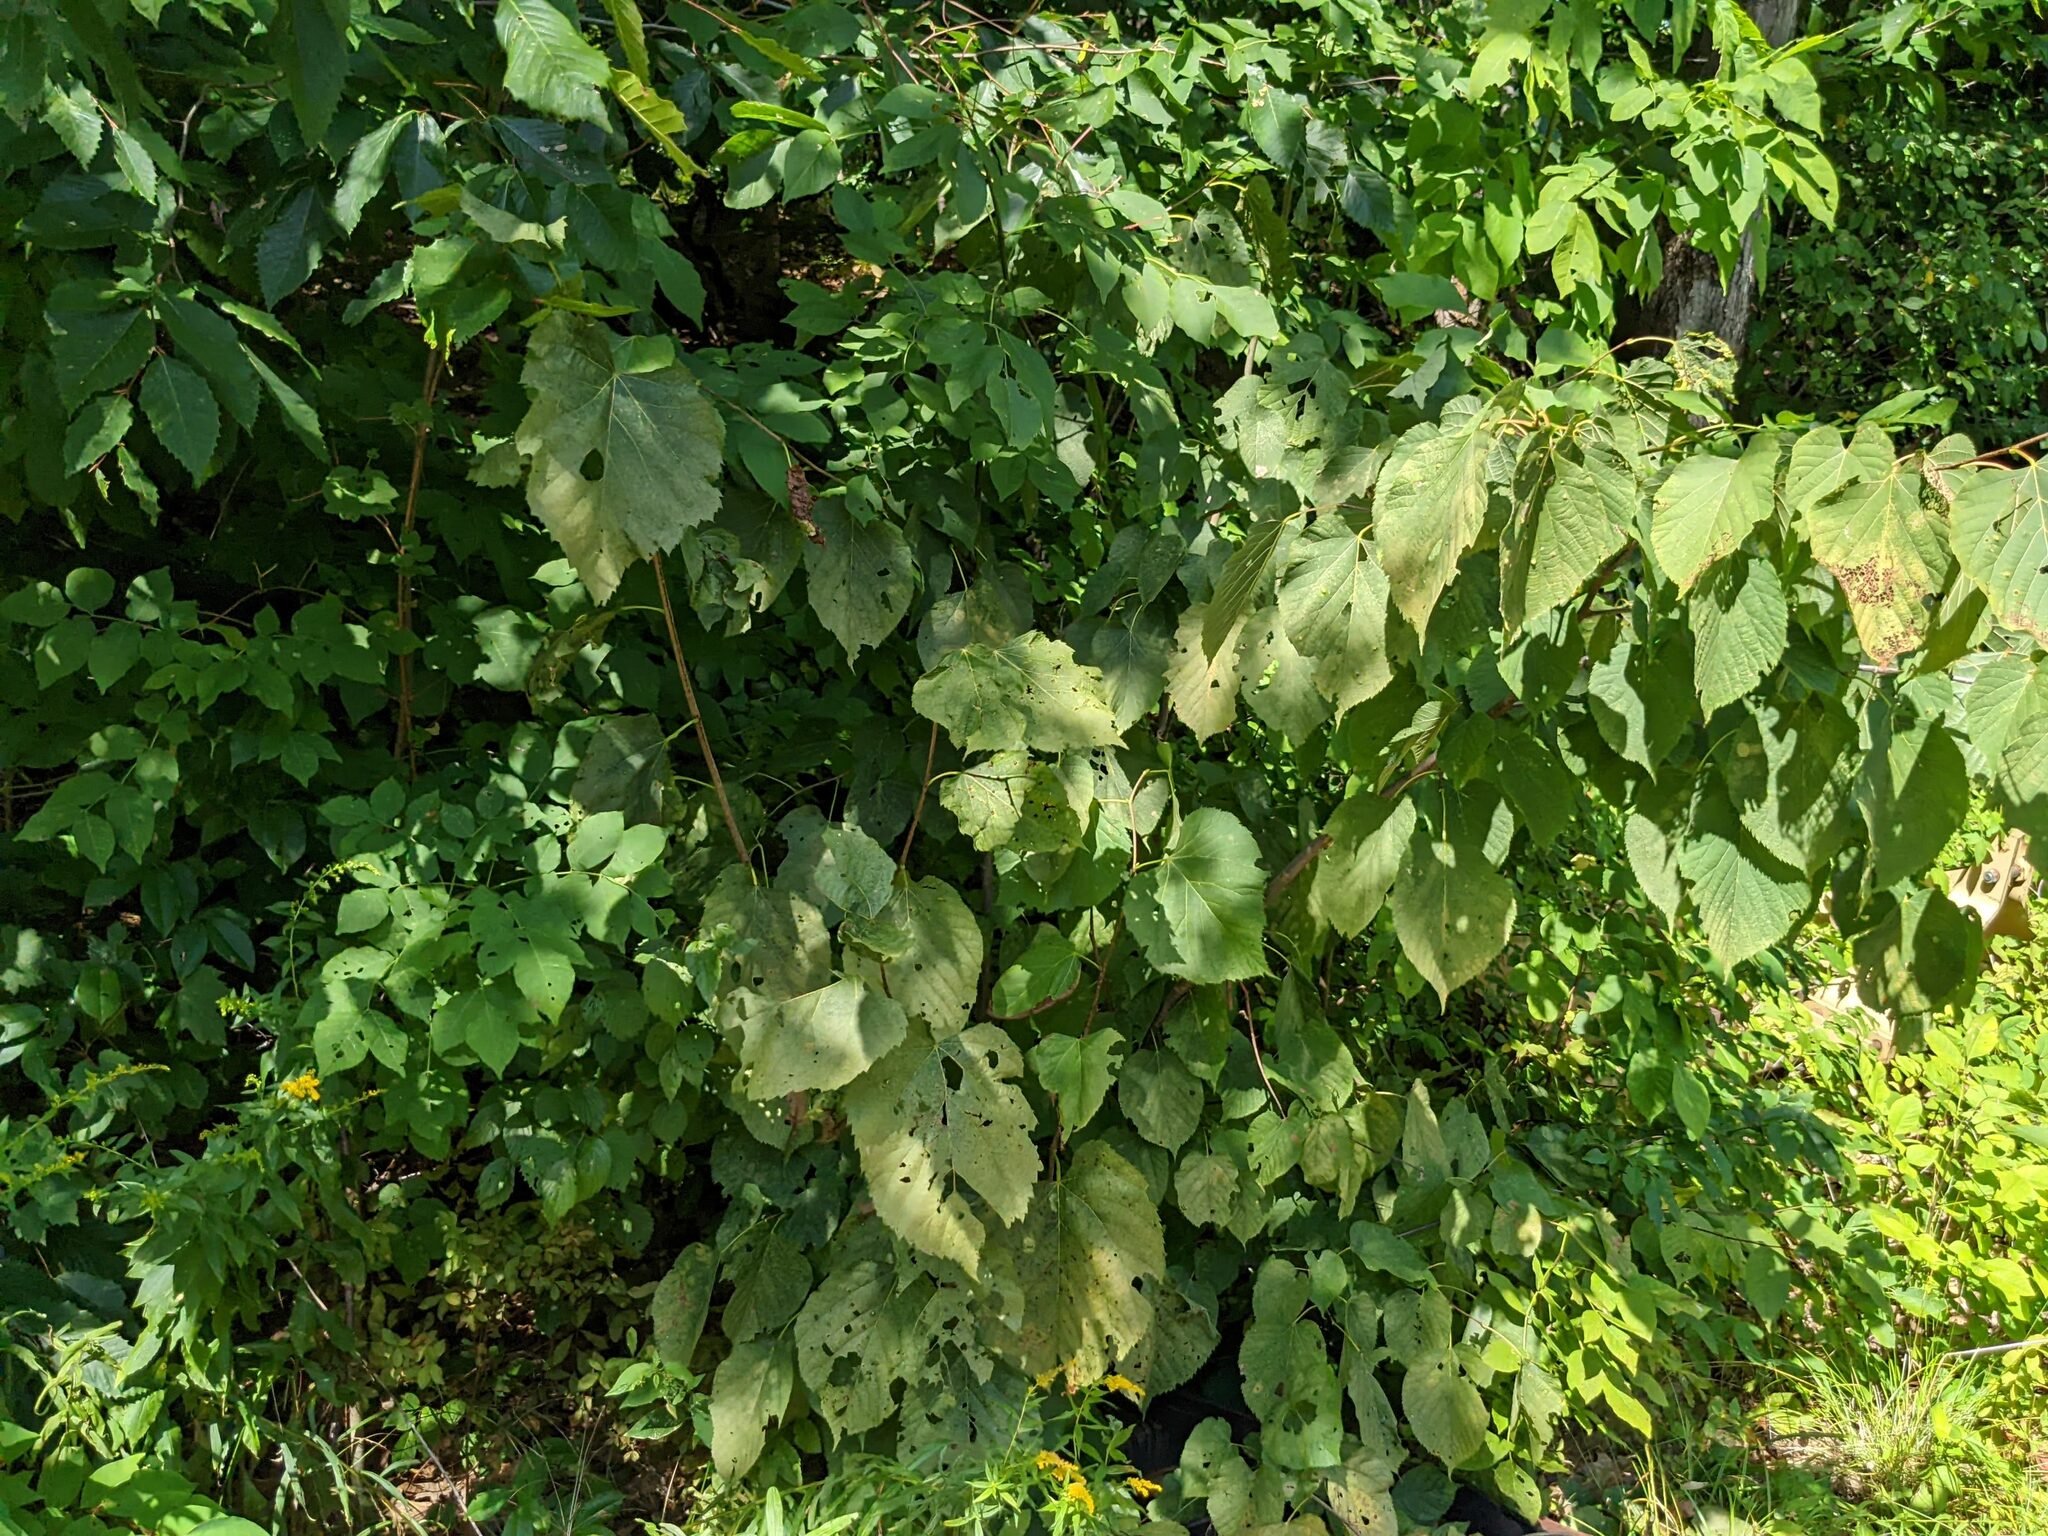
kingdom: Plantae
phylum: Tracheophyta
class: Magnoliopsida
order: Malvales
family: Malvaceae
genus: Tilia
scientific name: Tilia americana
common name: Basswood
